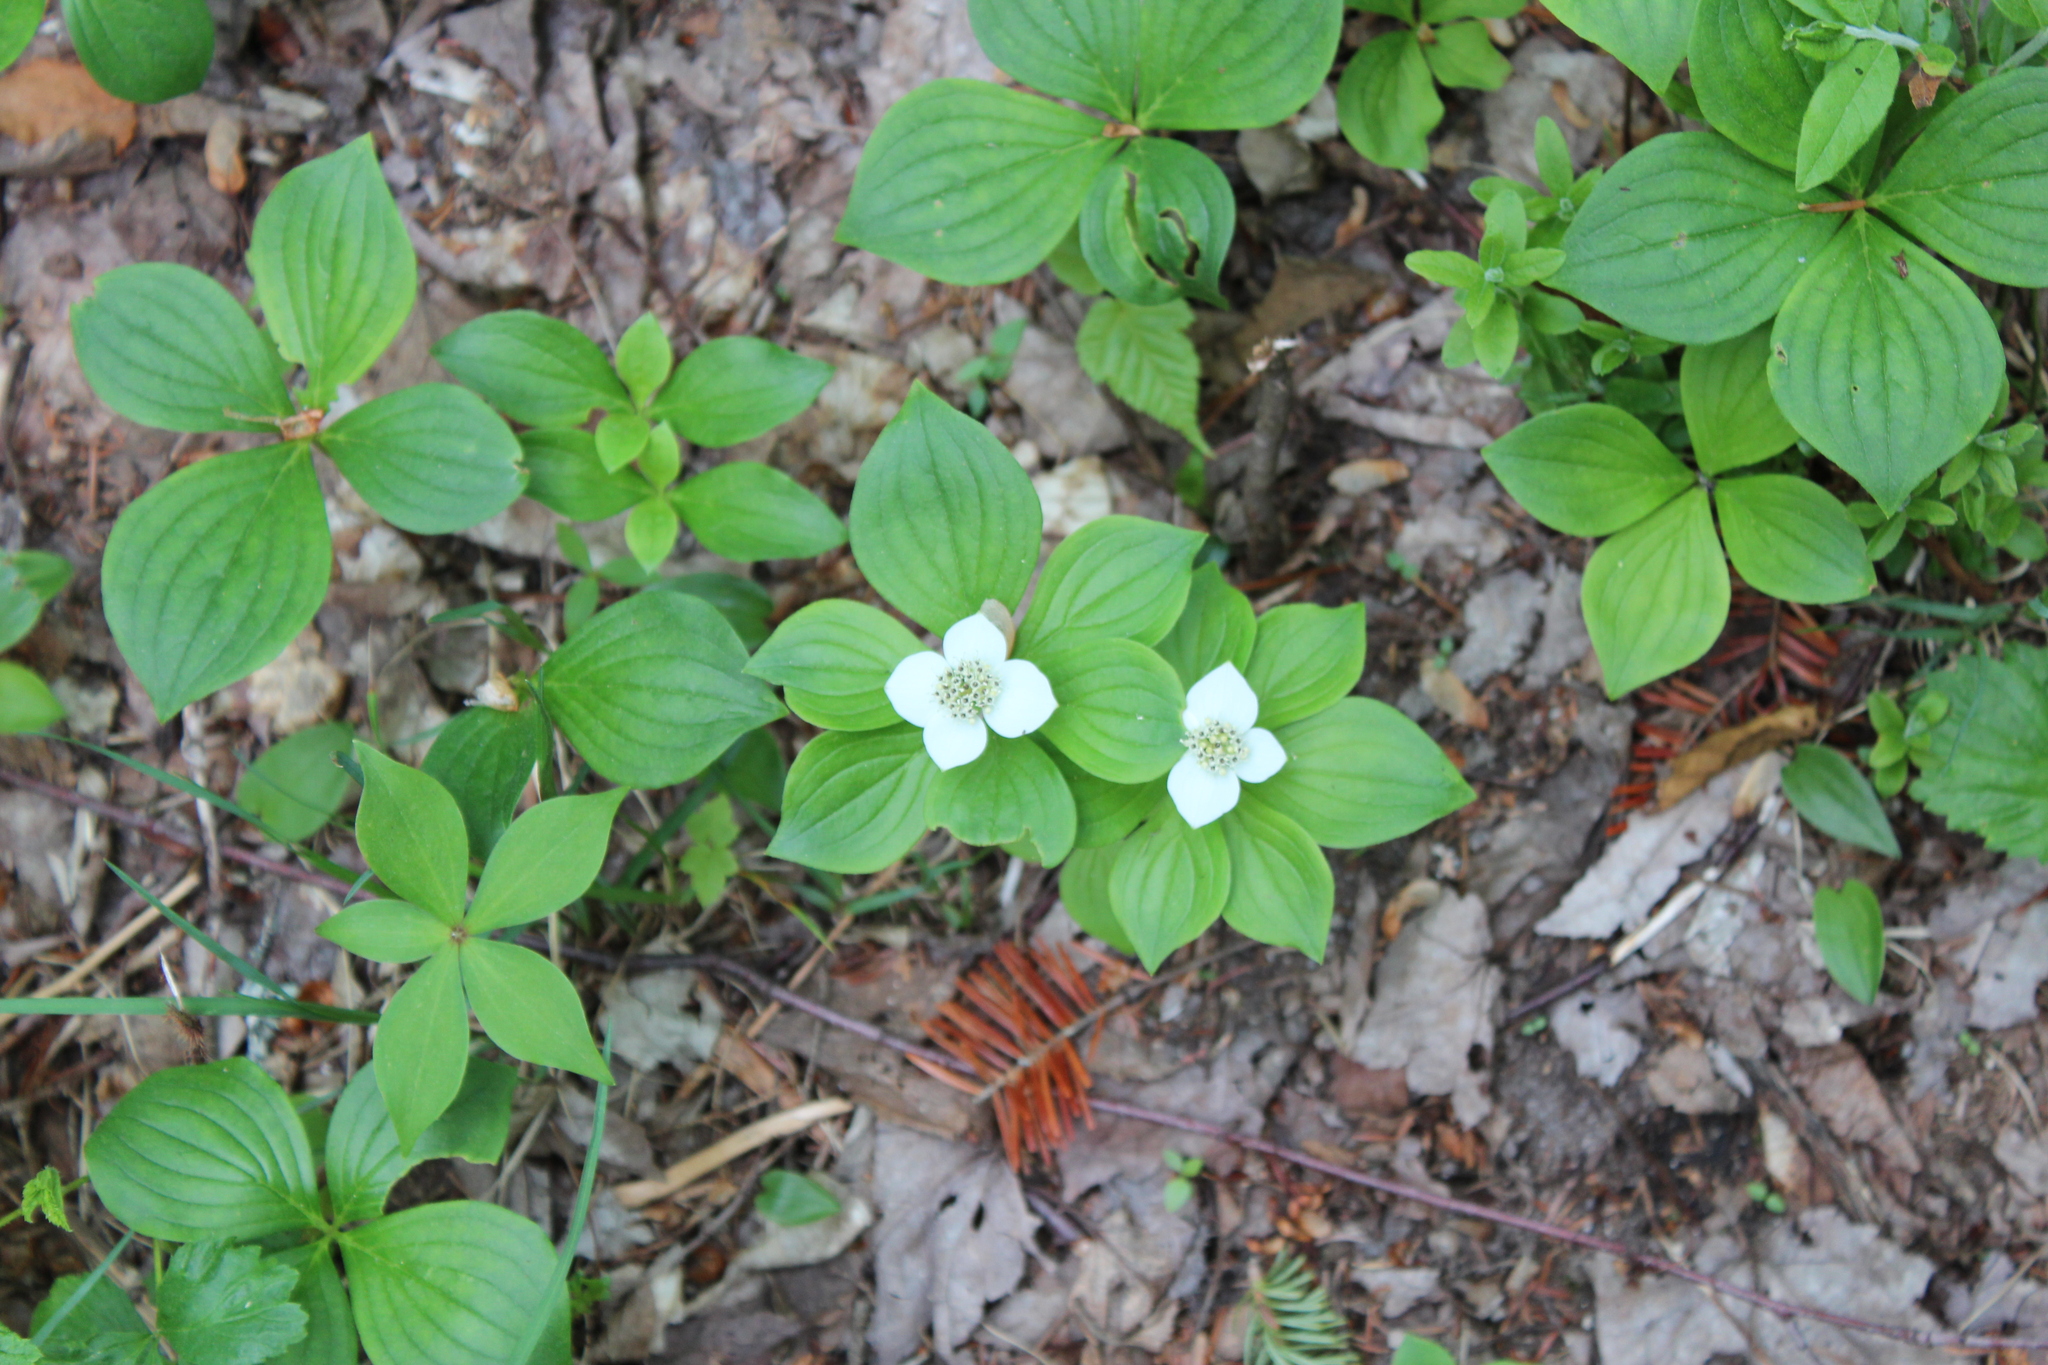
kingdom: Plantae
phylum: Tracheophyta
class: Magnoliopsida
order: Cornales
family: Cornaceae
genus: Cornus
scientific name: Cornus canadensis
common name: Creeping dogwood
